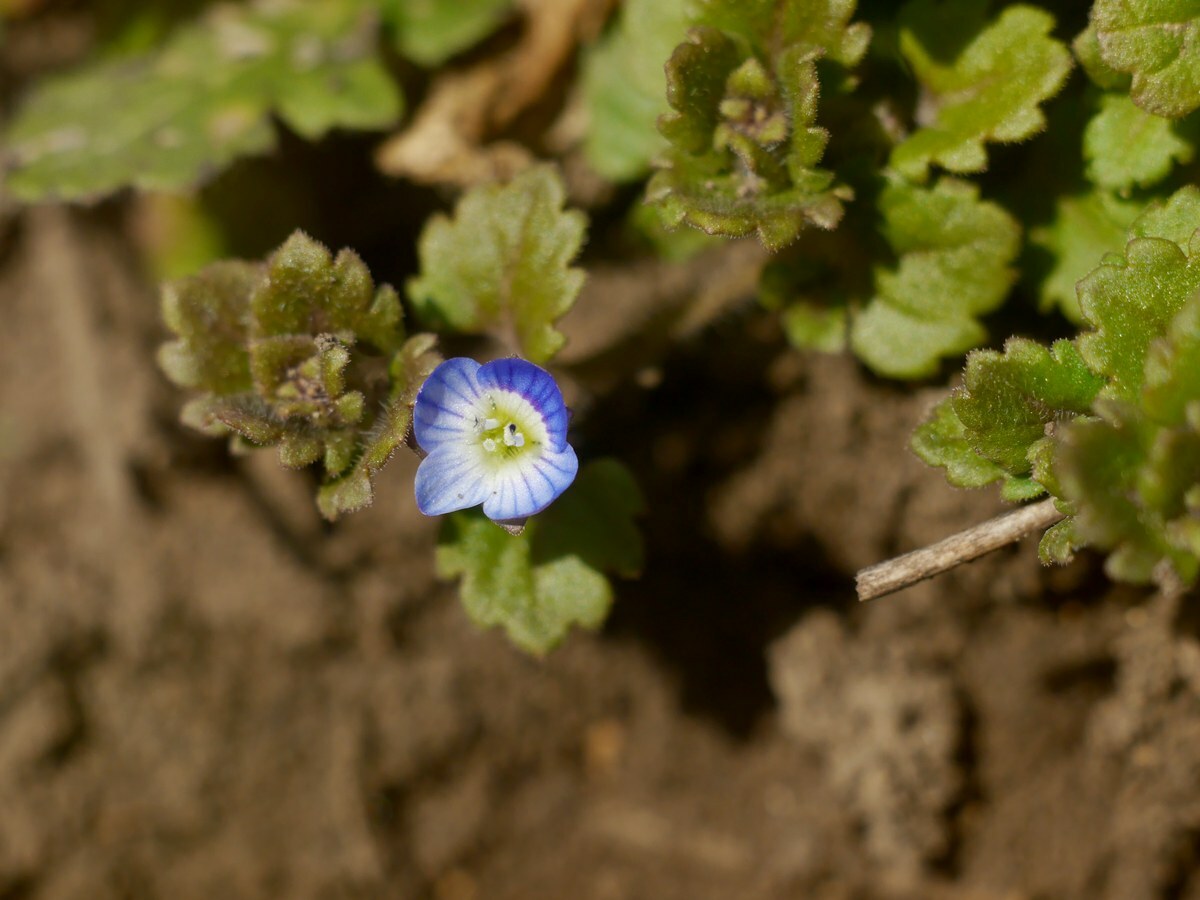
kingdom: Plantae
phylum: Tracheophyta
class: Magnoliopsida
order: Lamiales
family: Plantaginaceae
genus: Veronica
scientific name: Veronica polita
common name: Grey field-speedwell
